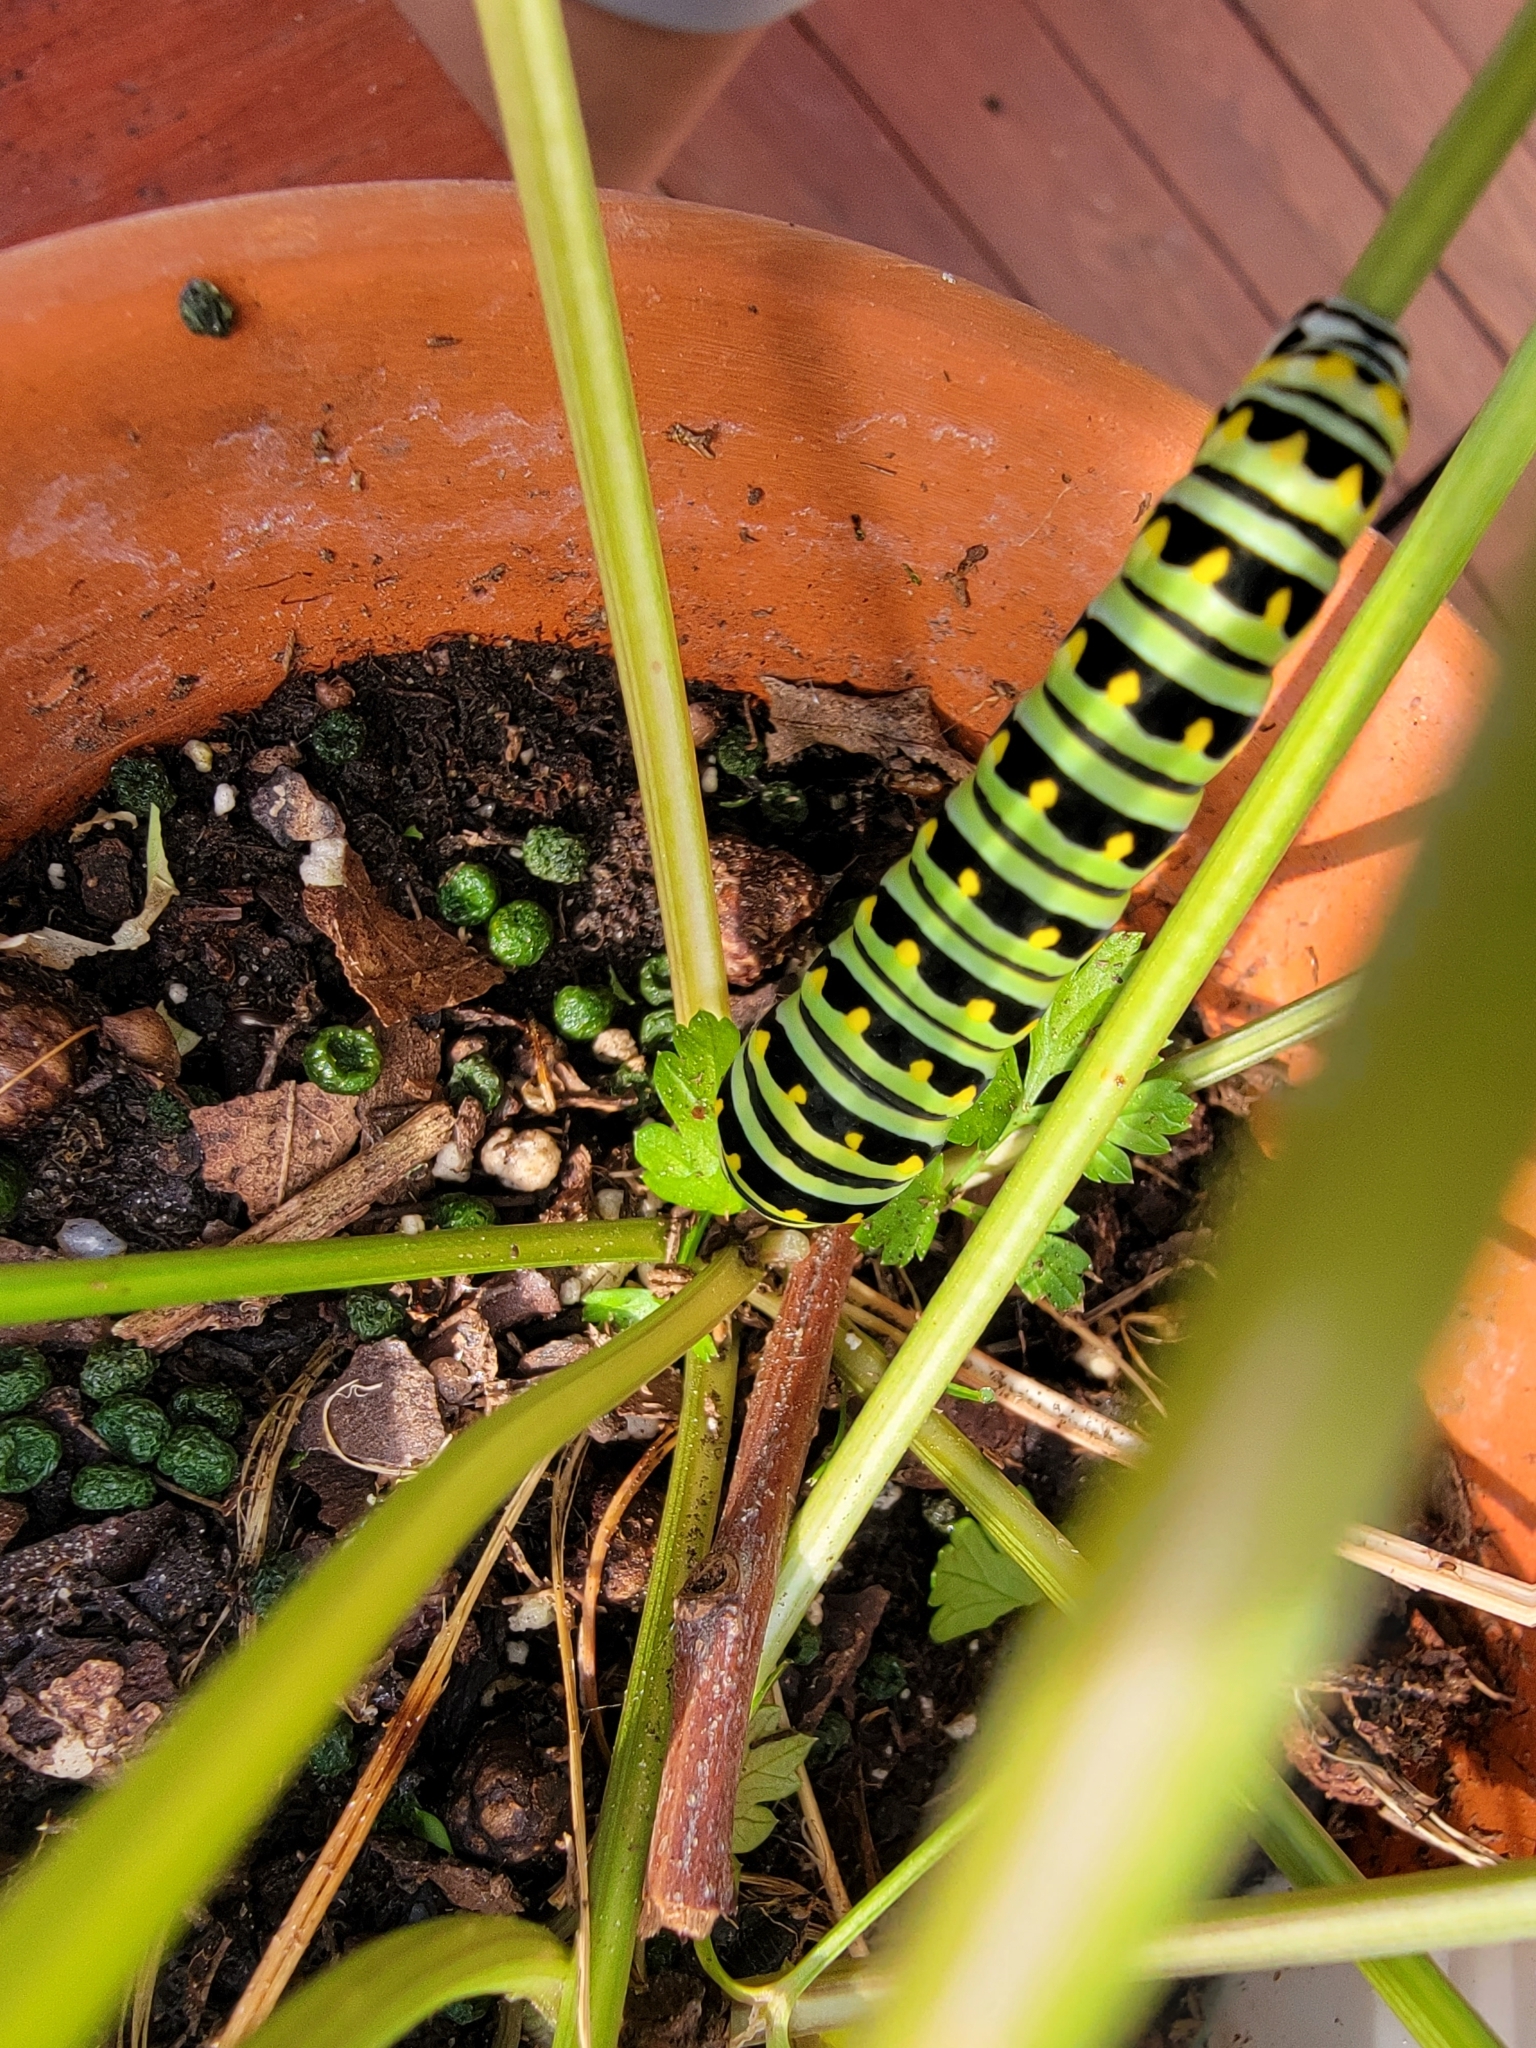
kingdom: Animalia
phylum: Arthropoda
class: Insecta
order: Lepidoptera
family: Papilionidae
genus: Papilio
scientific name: Papilio polyxenes
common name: Black swallowtail
